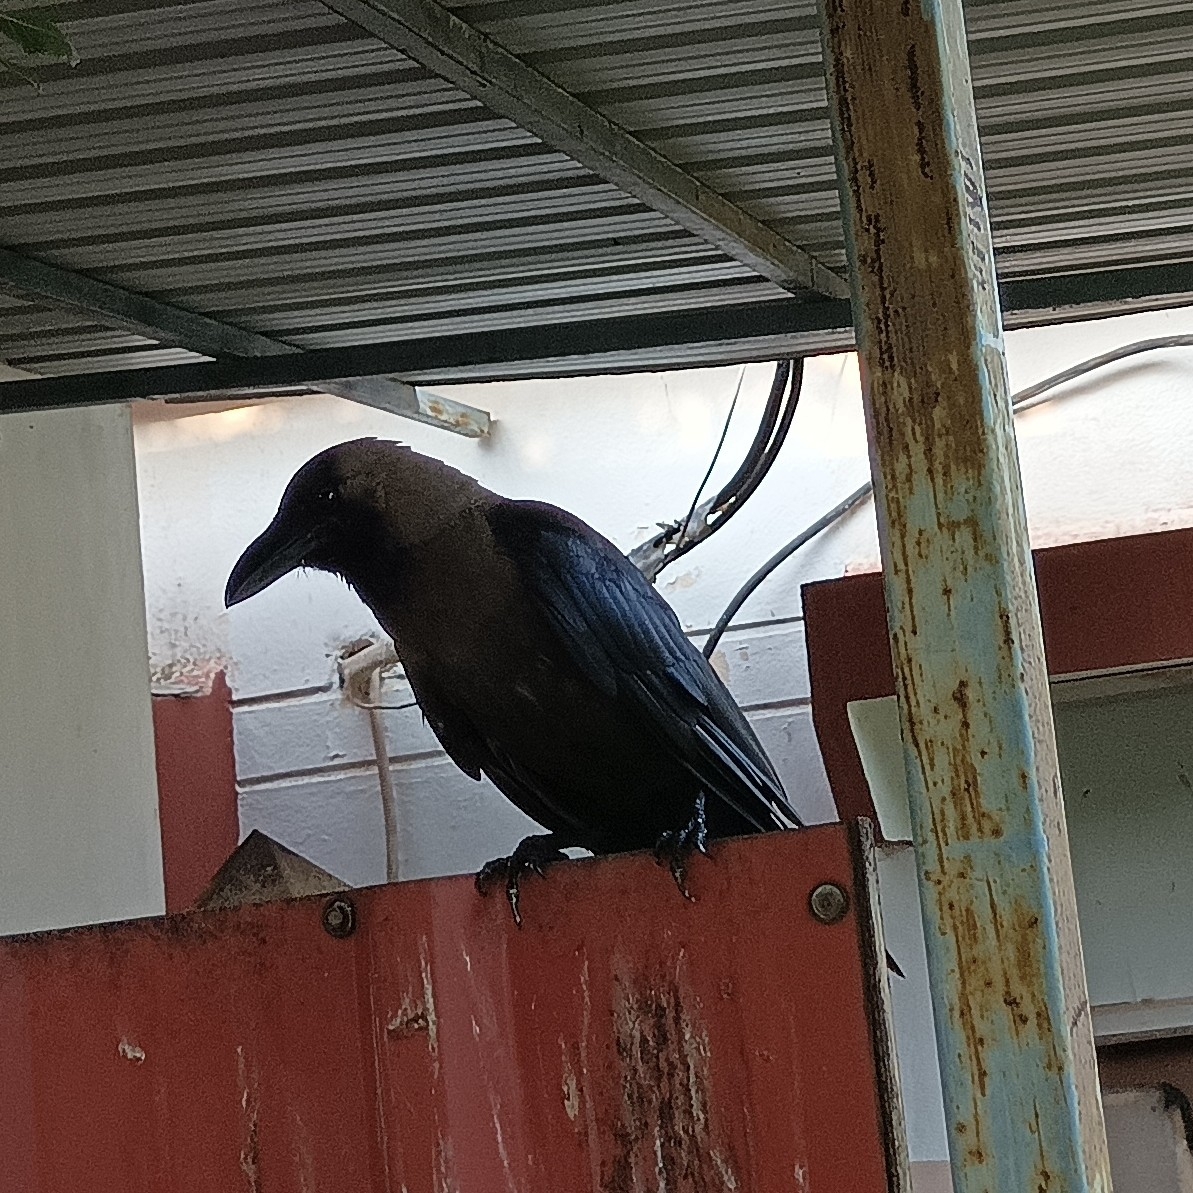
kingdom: Animalia
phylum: Chordata
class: Aves
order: Passeriformes
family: Corvidae
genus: Corvus
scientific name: Corvus splendens
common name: House crow
